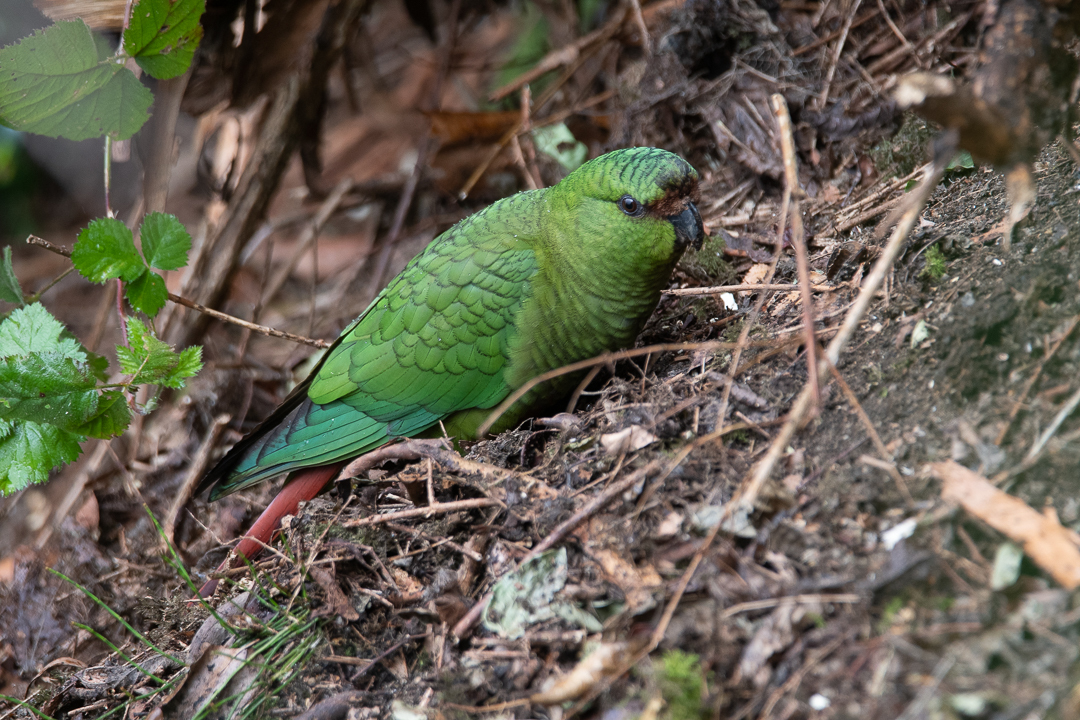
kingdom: Animalia
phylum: Chordata
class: Aves
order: Psittaciformes
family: Psittacidae
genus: Enicognathus
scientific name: Enicognathus ferrugineus
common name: Austral parakeet
